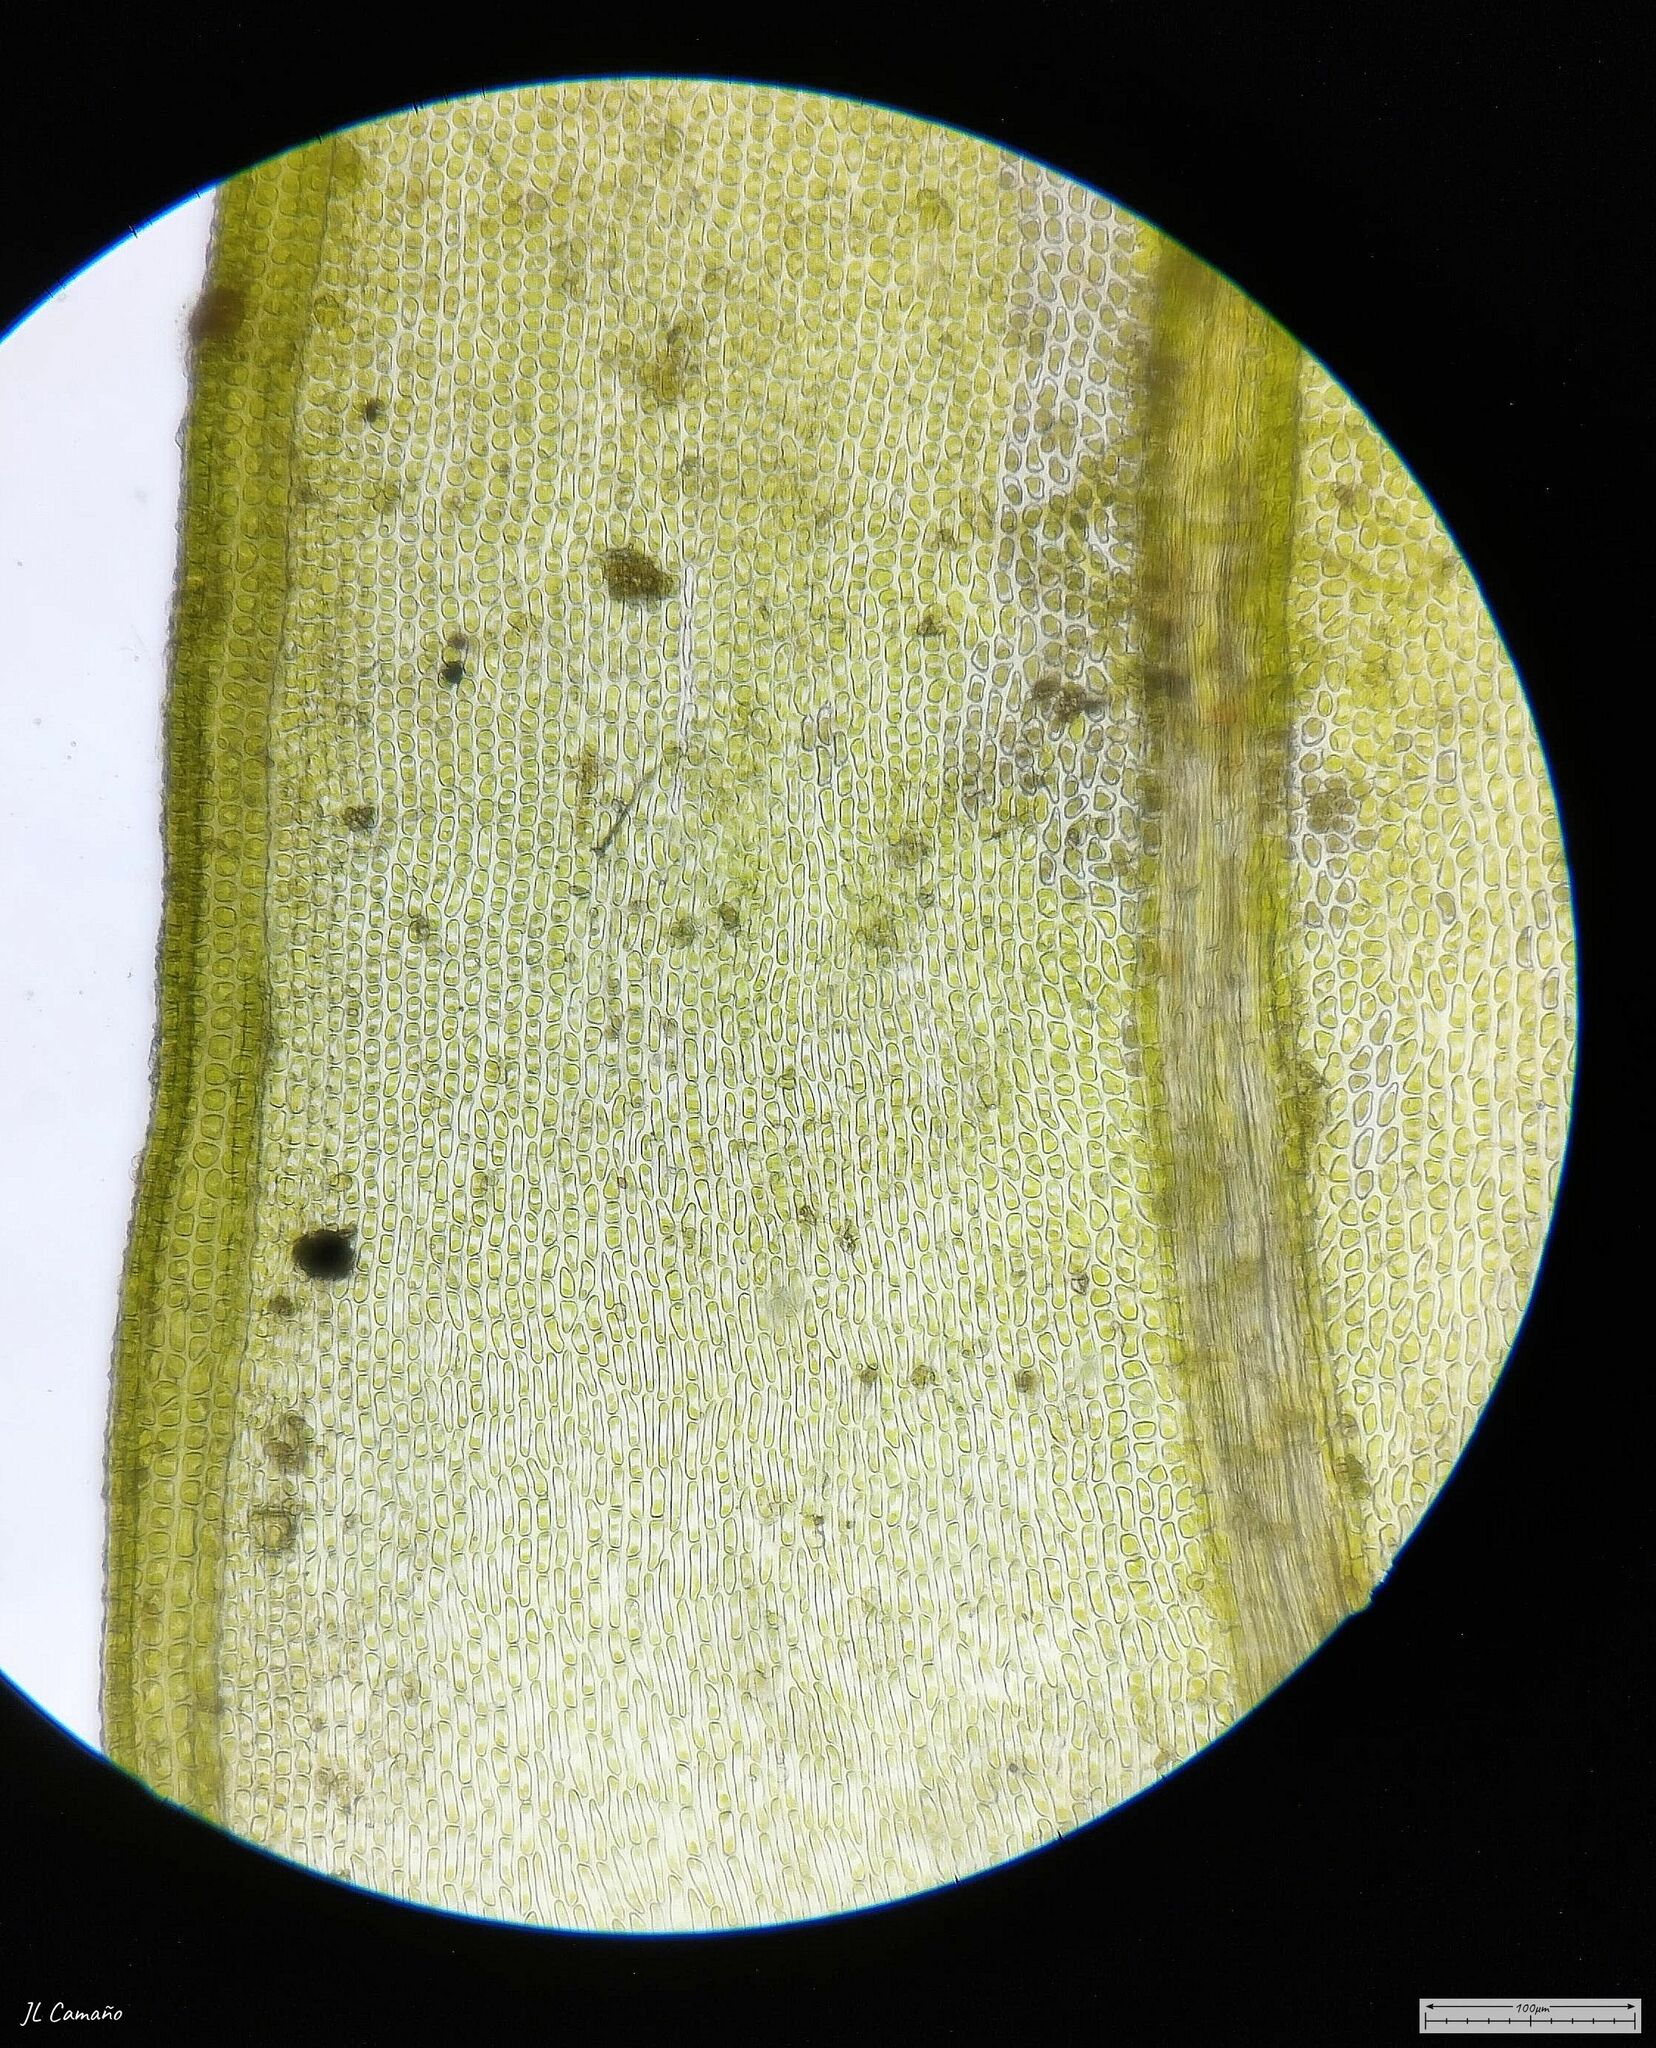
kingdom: Plantae
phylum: Bryophyta
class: Bryopsida
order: Orthotrichales
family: Orthotrichaceae
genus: Lewinskya
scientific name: Lewinskya affinis
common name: Wood bristle-moss
